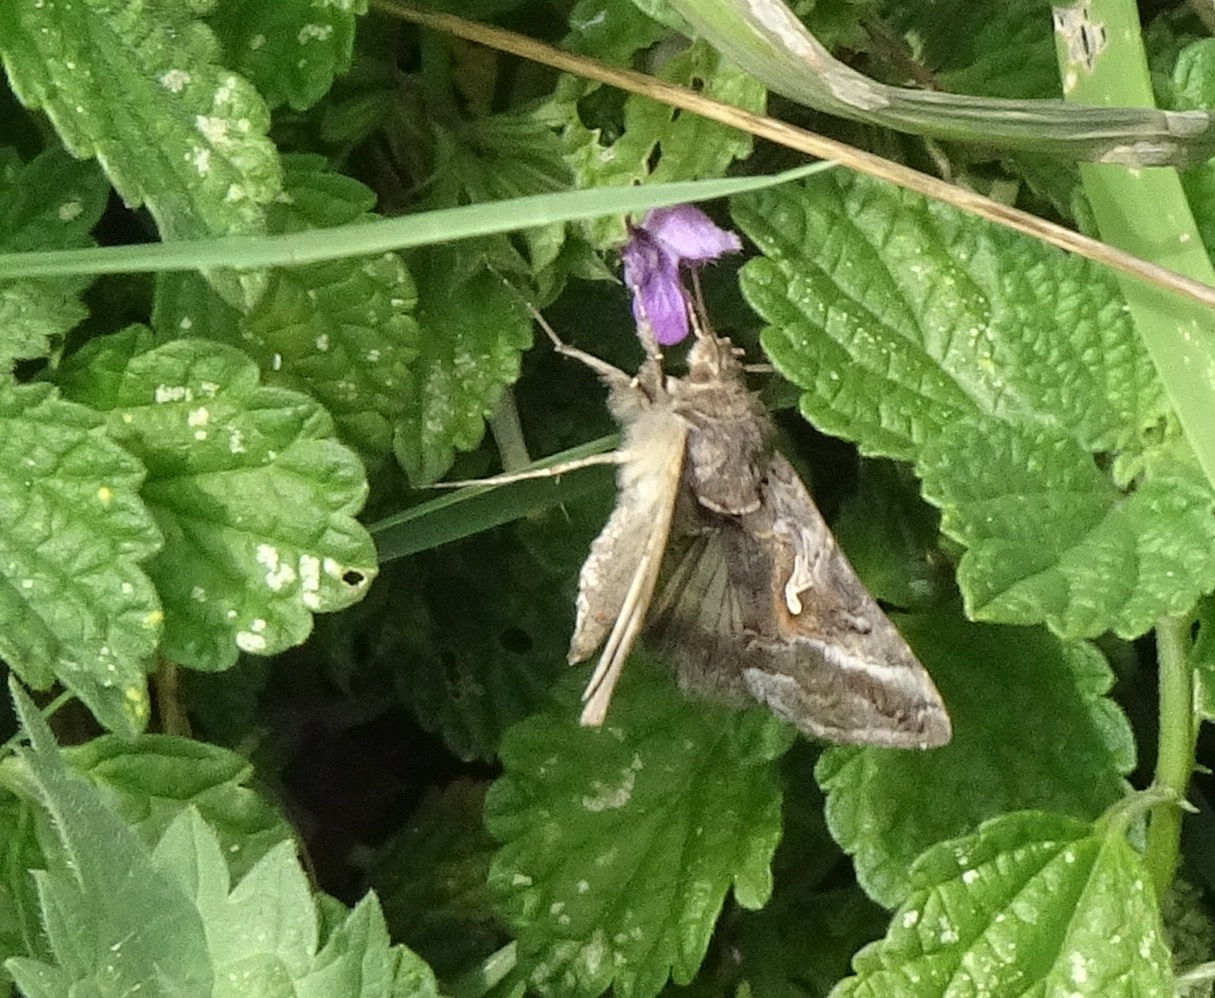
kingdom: Animalia
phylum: Arthropoda
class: Insecta
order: Lepidoptera
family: Noctuidae
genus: Autographa
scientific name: Autographa gamma
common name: Silver y
